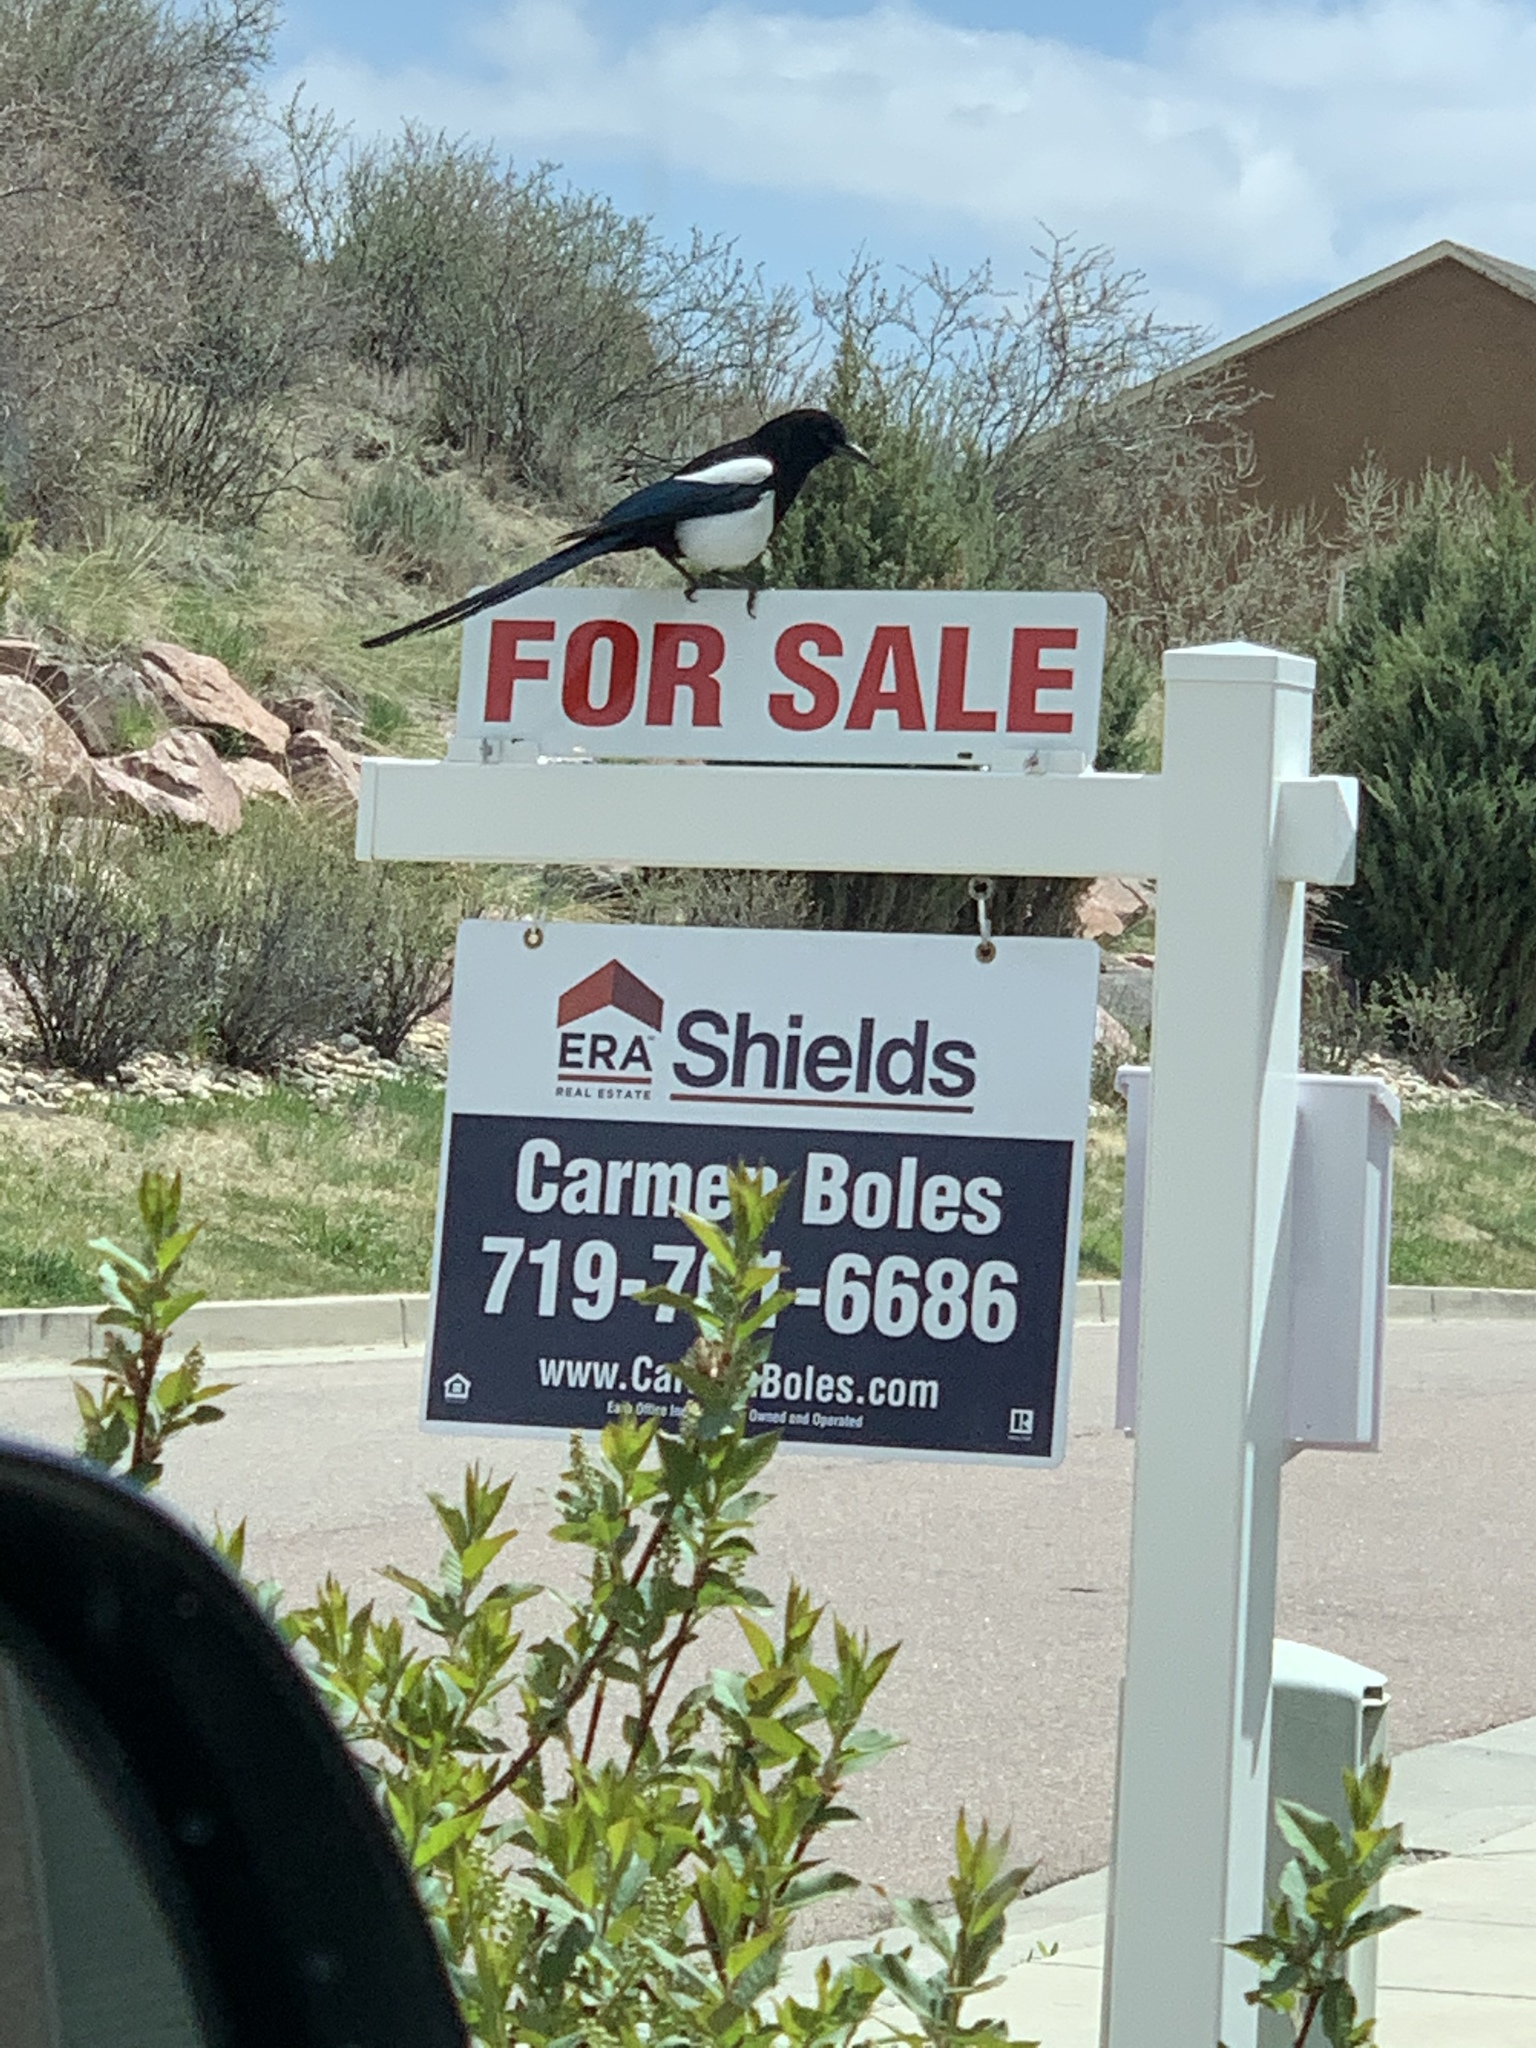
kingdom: Animalia
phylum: Chordata
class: Aves
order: Passeriformes
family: Corvidae
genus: Pica
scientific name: Pica hudsonia
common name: Black-billed magpie
